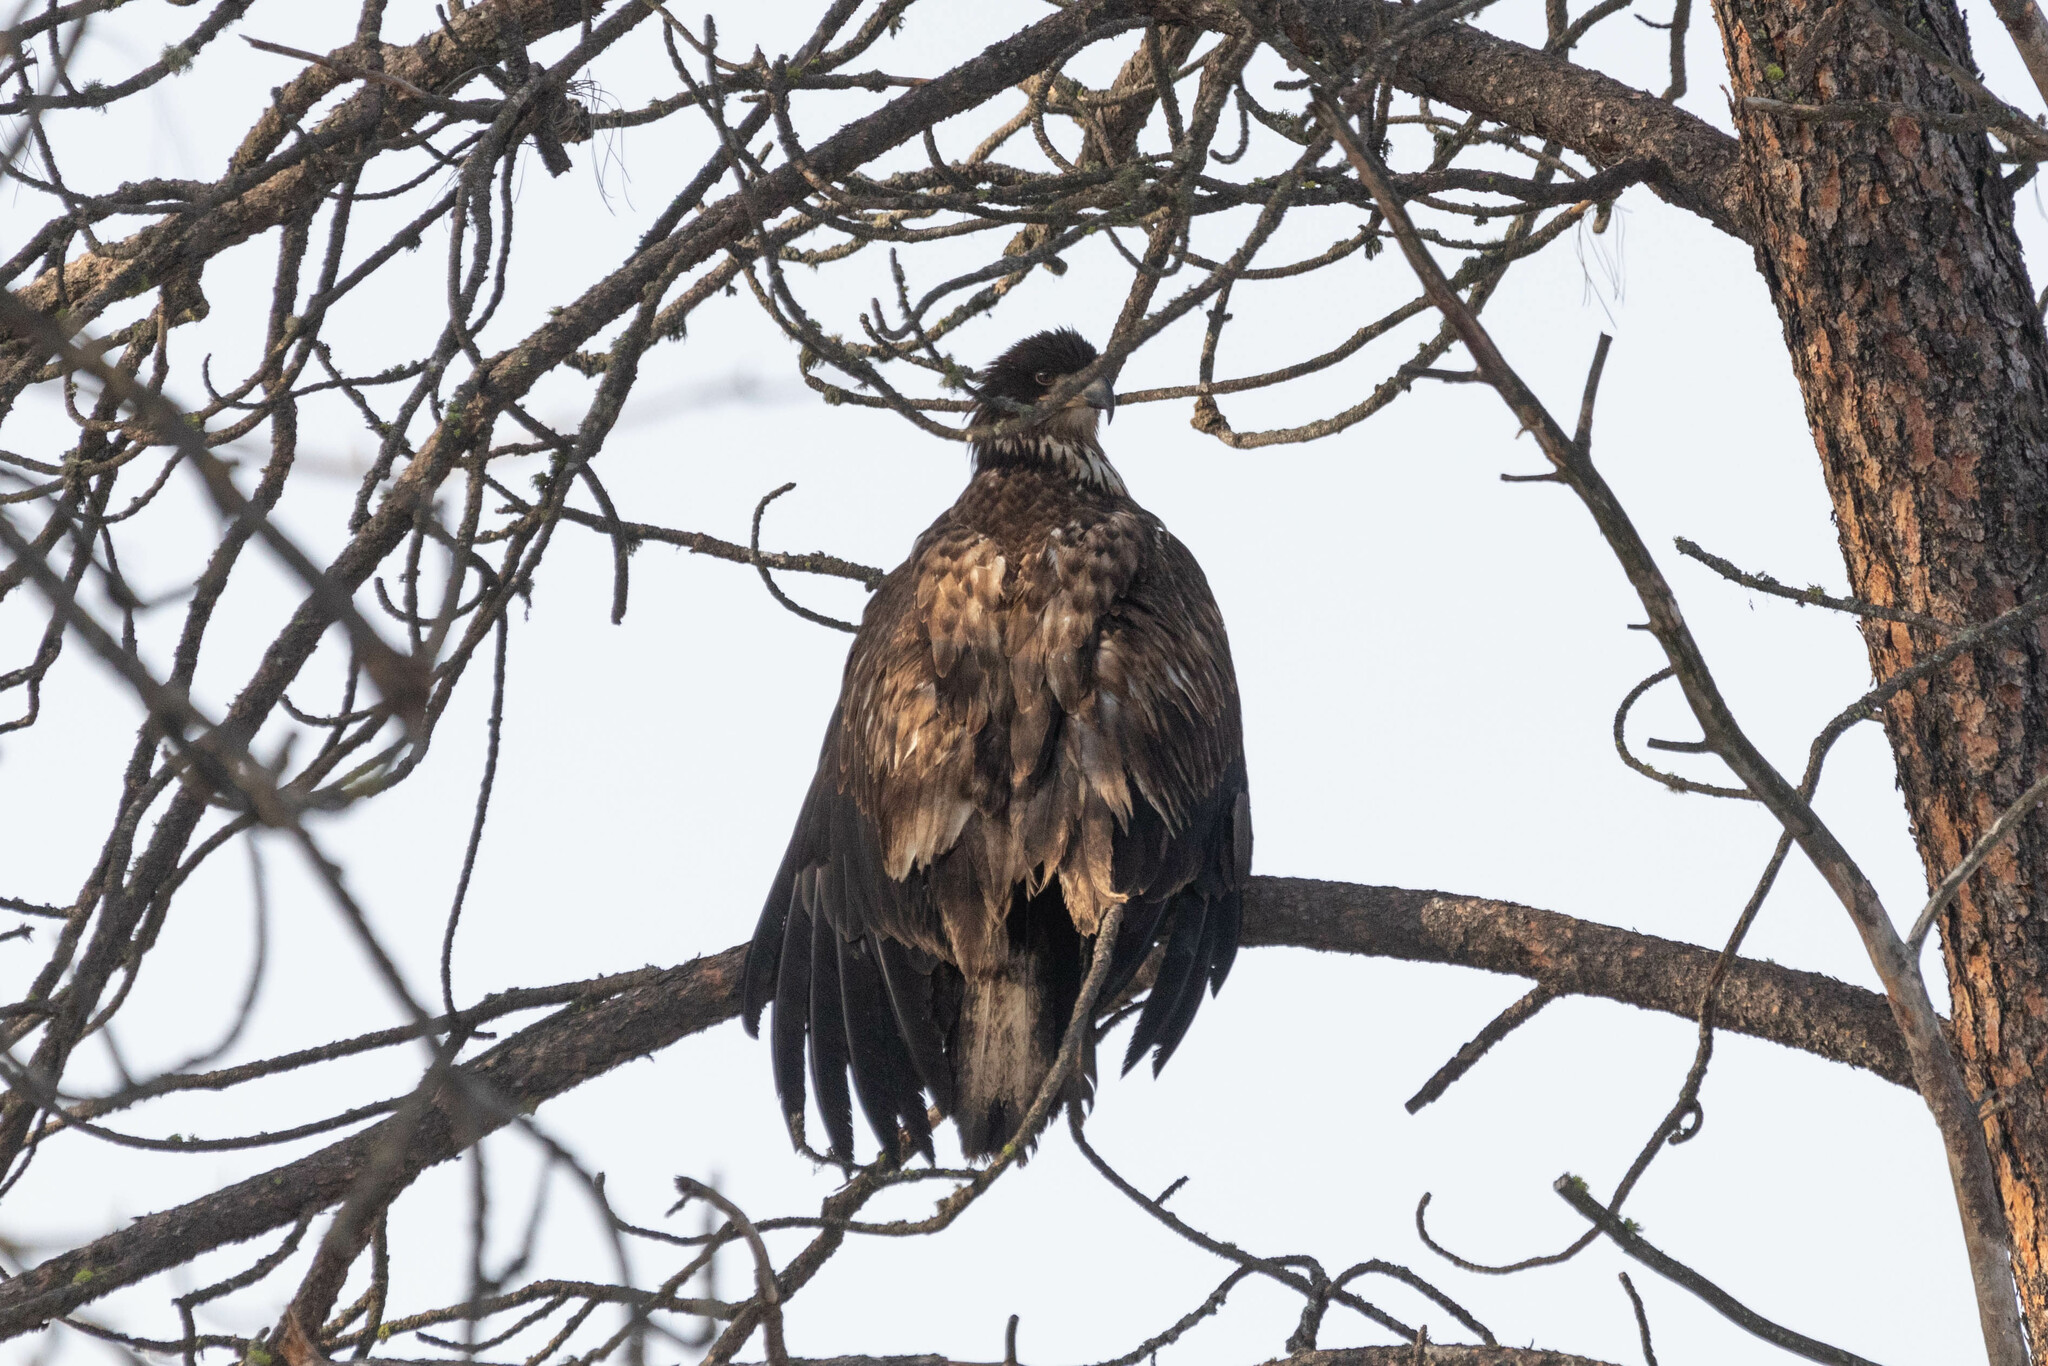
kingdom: Animalia
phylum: Chordata
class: Aves
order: Accipitriformes
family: Accipitridae
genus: Haliaeetus
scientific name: Haliaeetus leucocephalus
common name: Bald eagle
